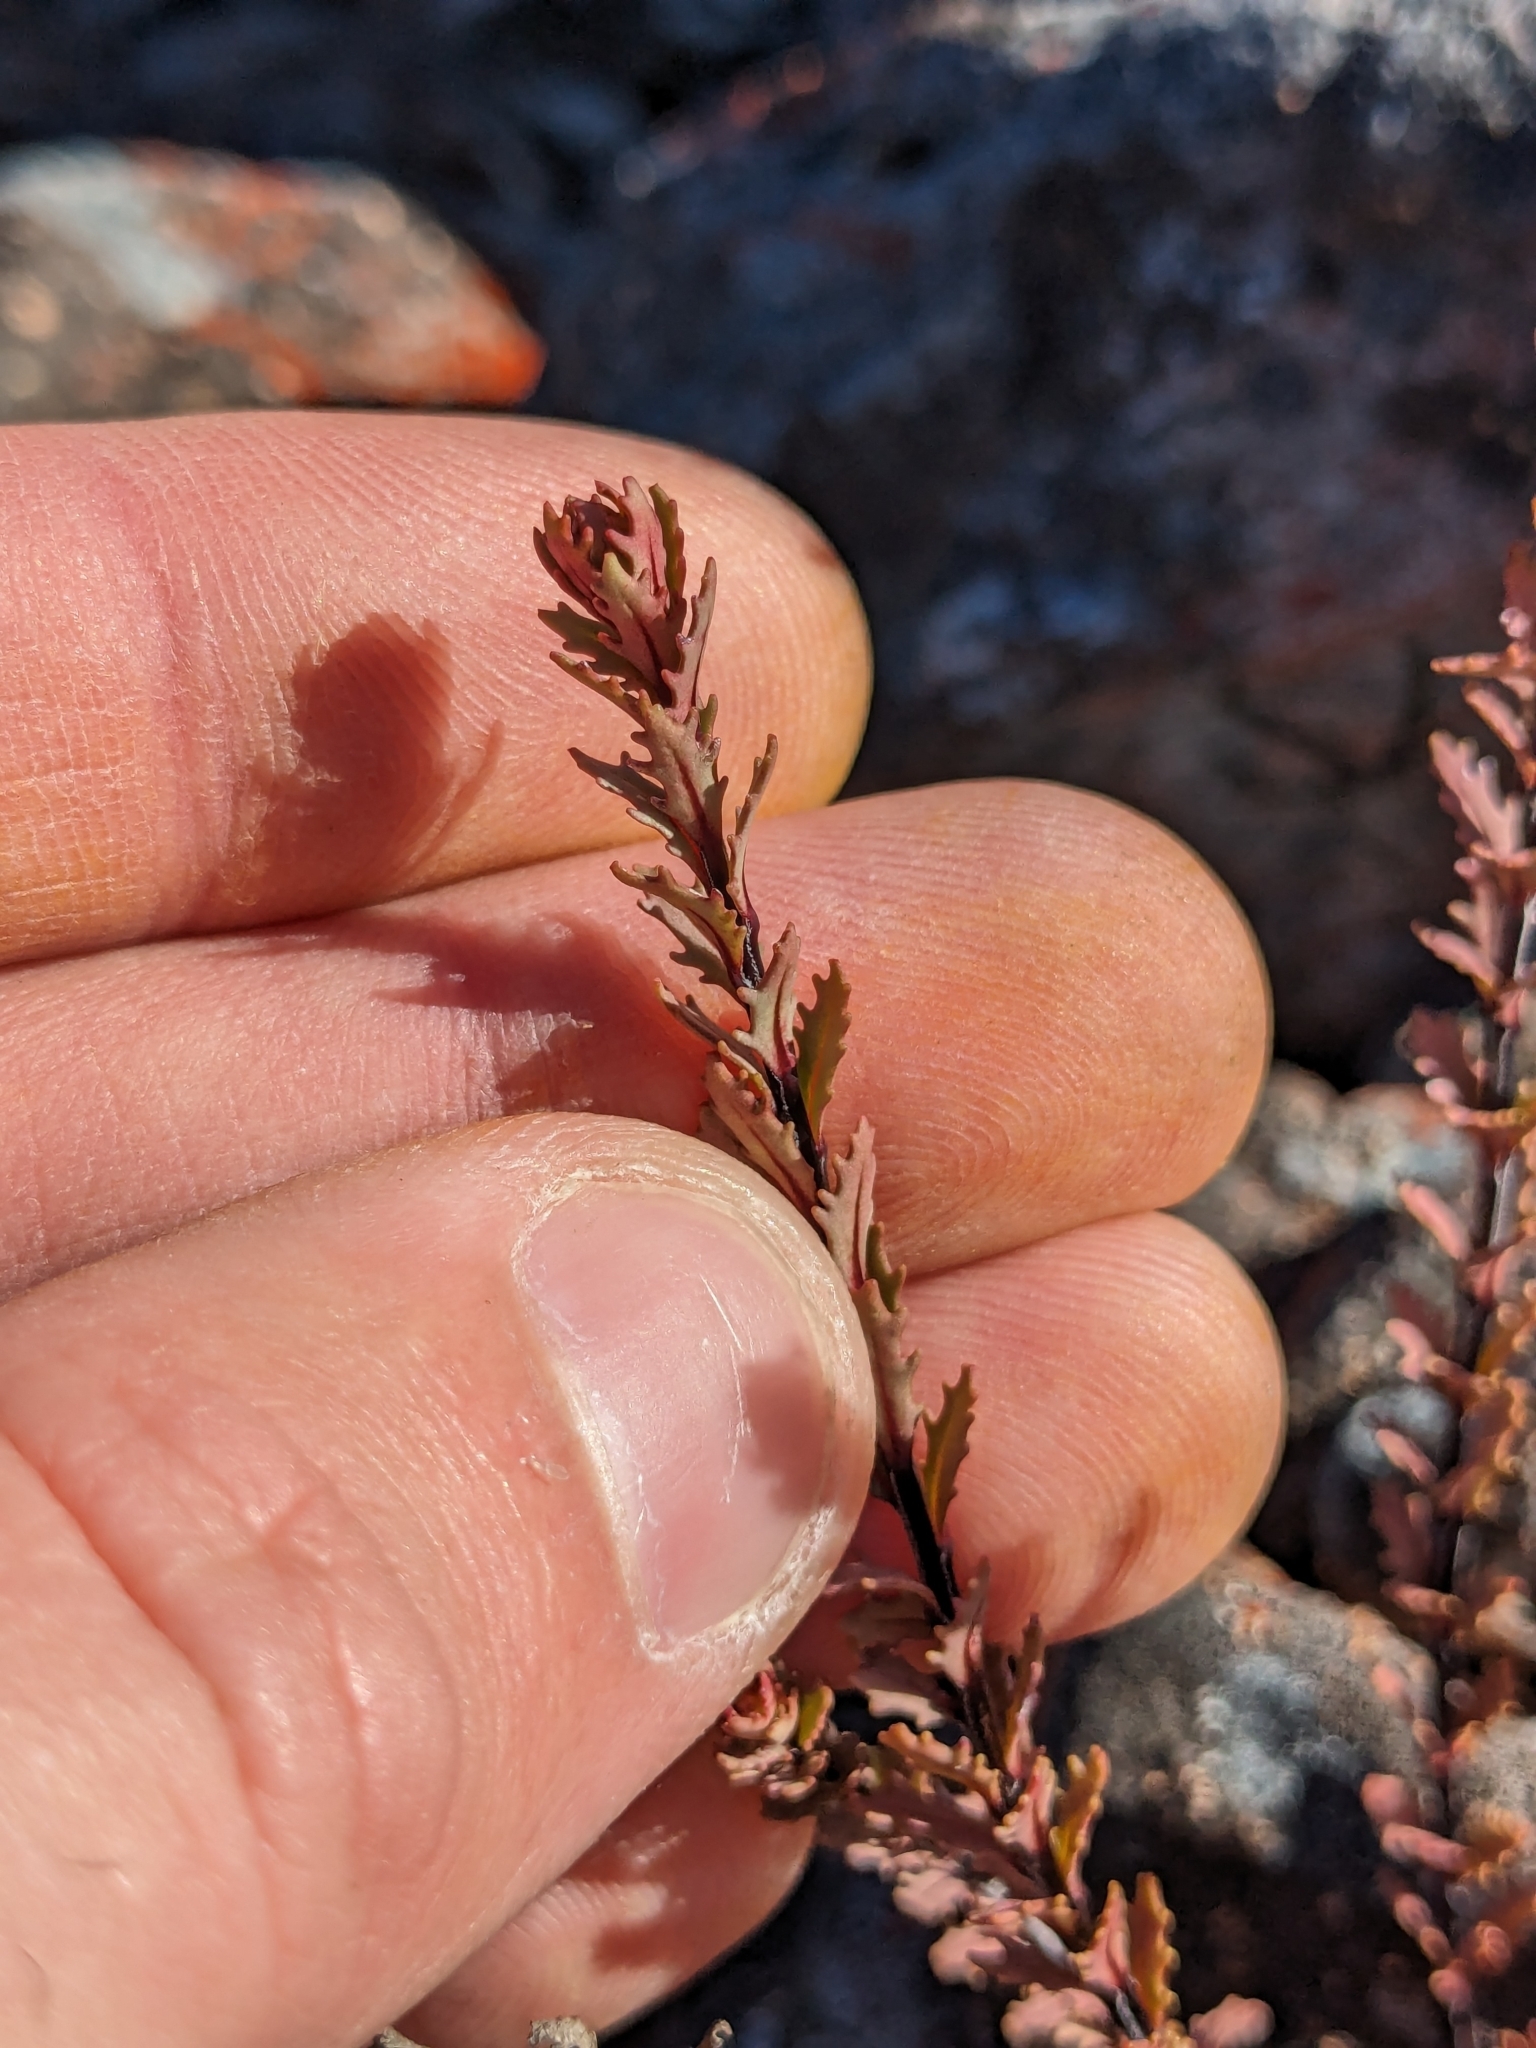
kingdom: Plantae
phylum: Tracheophyta
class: Magnoliopsida
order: Myrtales
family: Onagraceae
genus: Epilobium
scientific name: Epilobium melanocaulon
